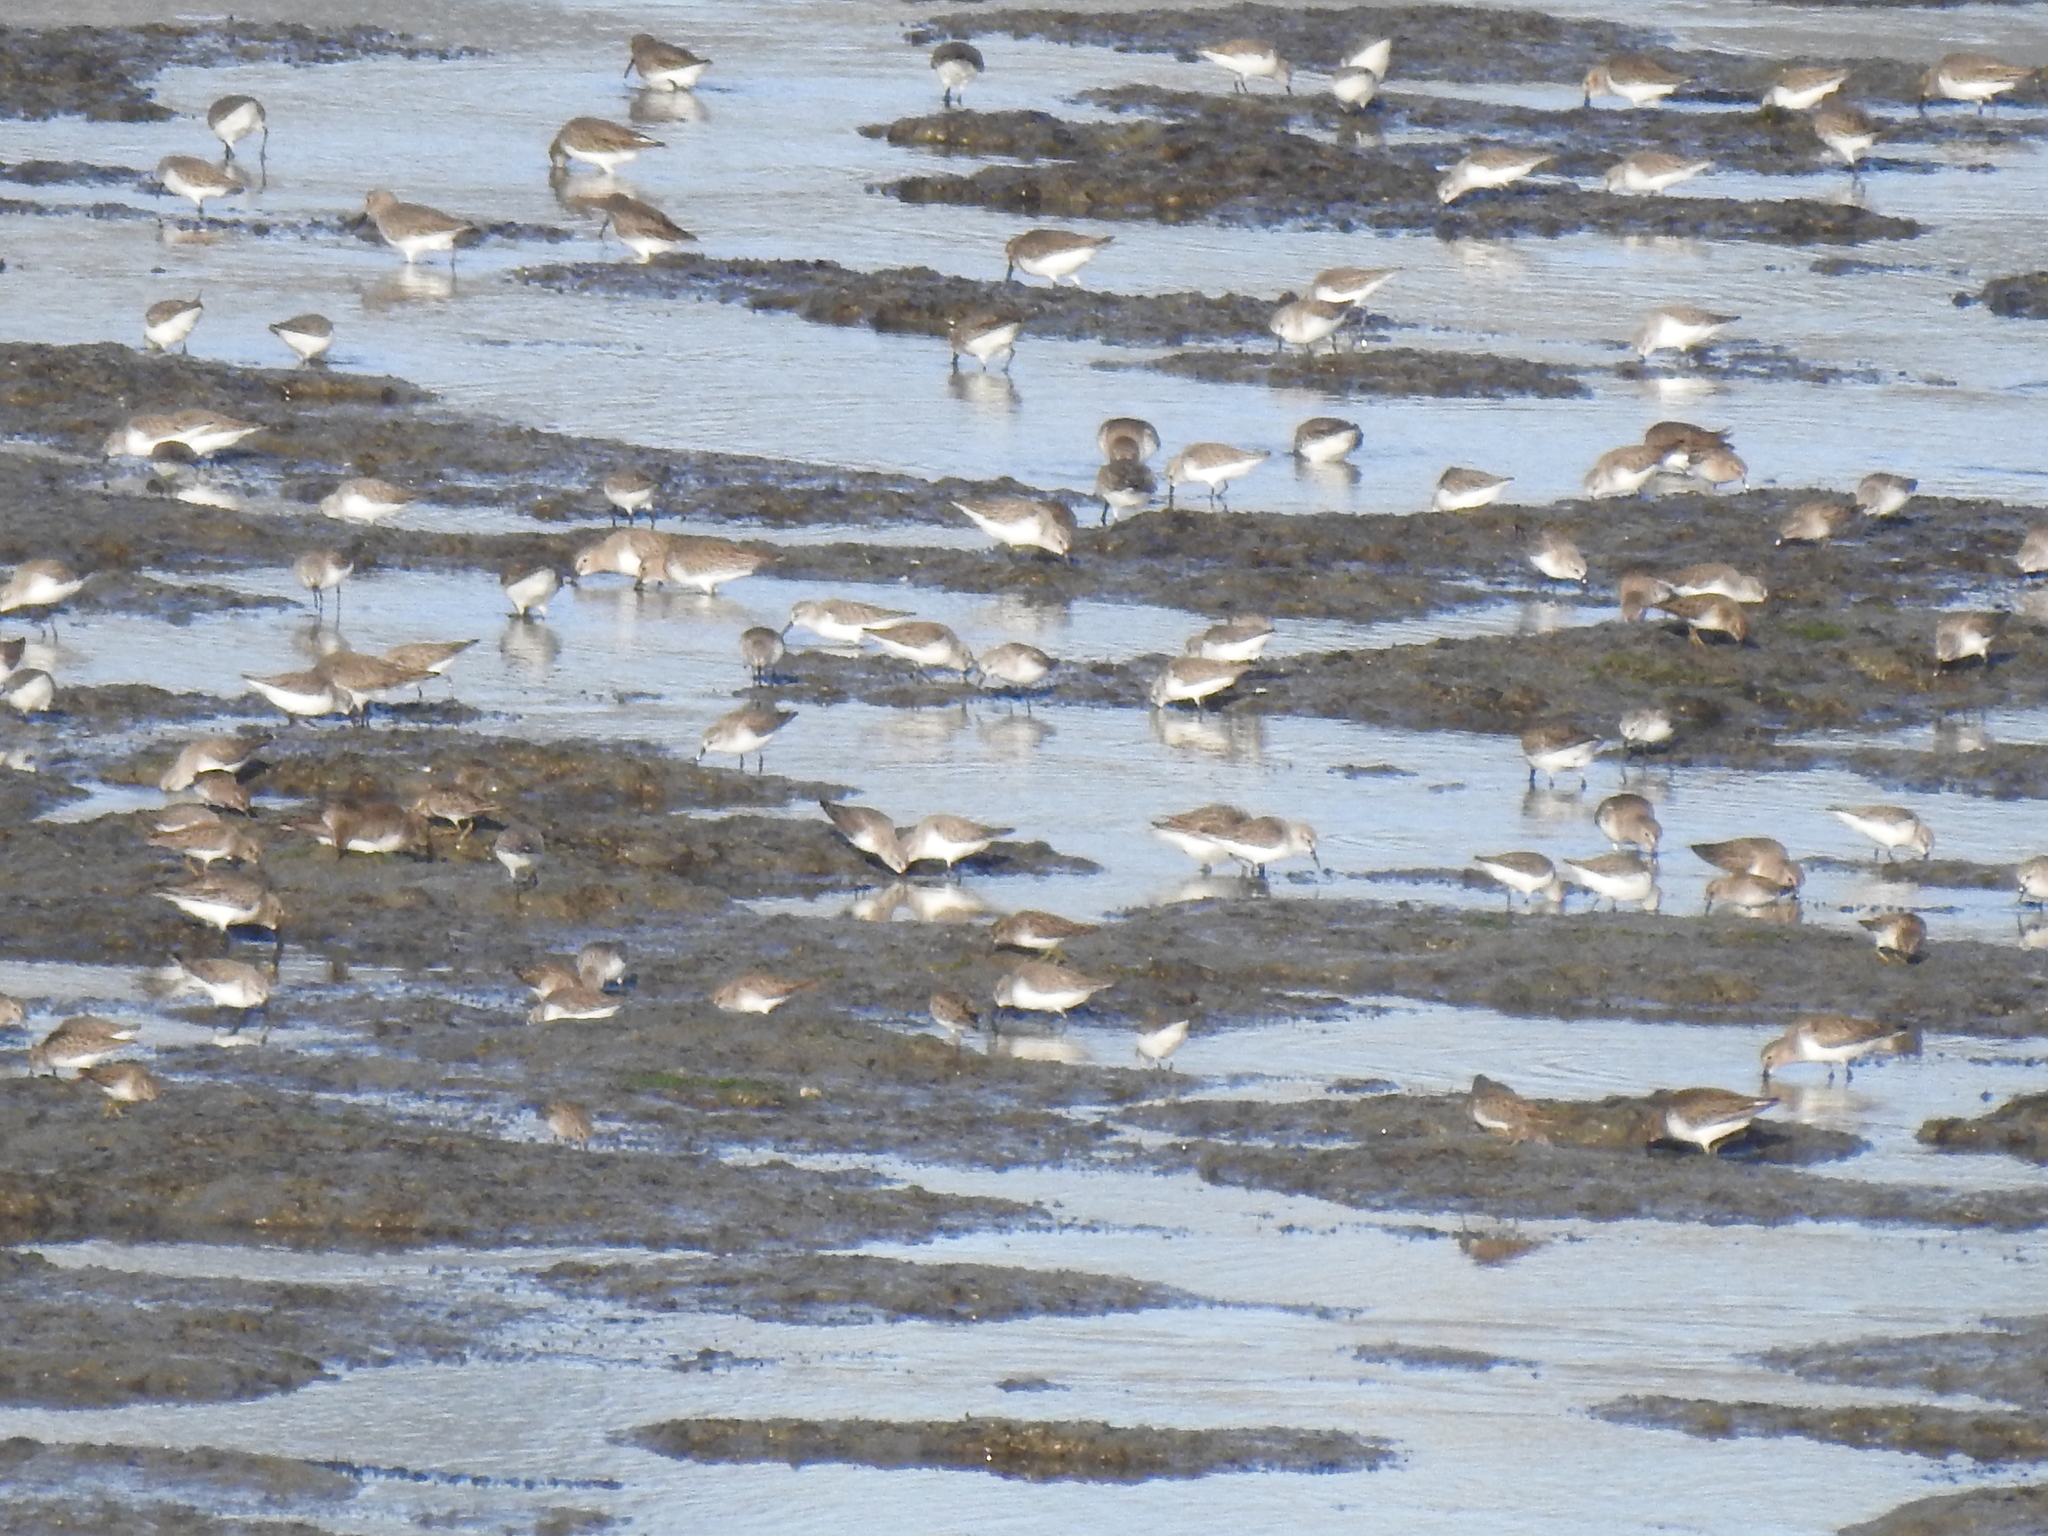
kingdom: Animalia
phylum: Chordata
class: Aves
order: Charadriiformes
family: Scolopacidae
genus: Calidris
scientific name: Calidris alpina
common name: Dunlin
